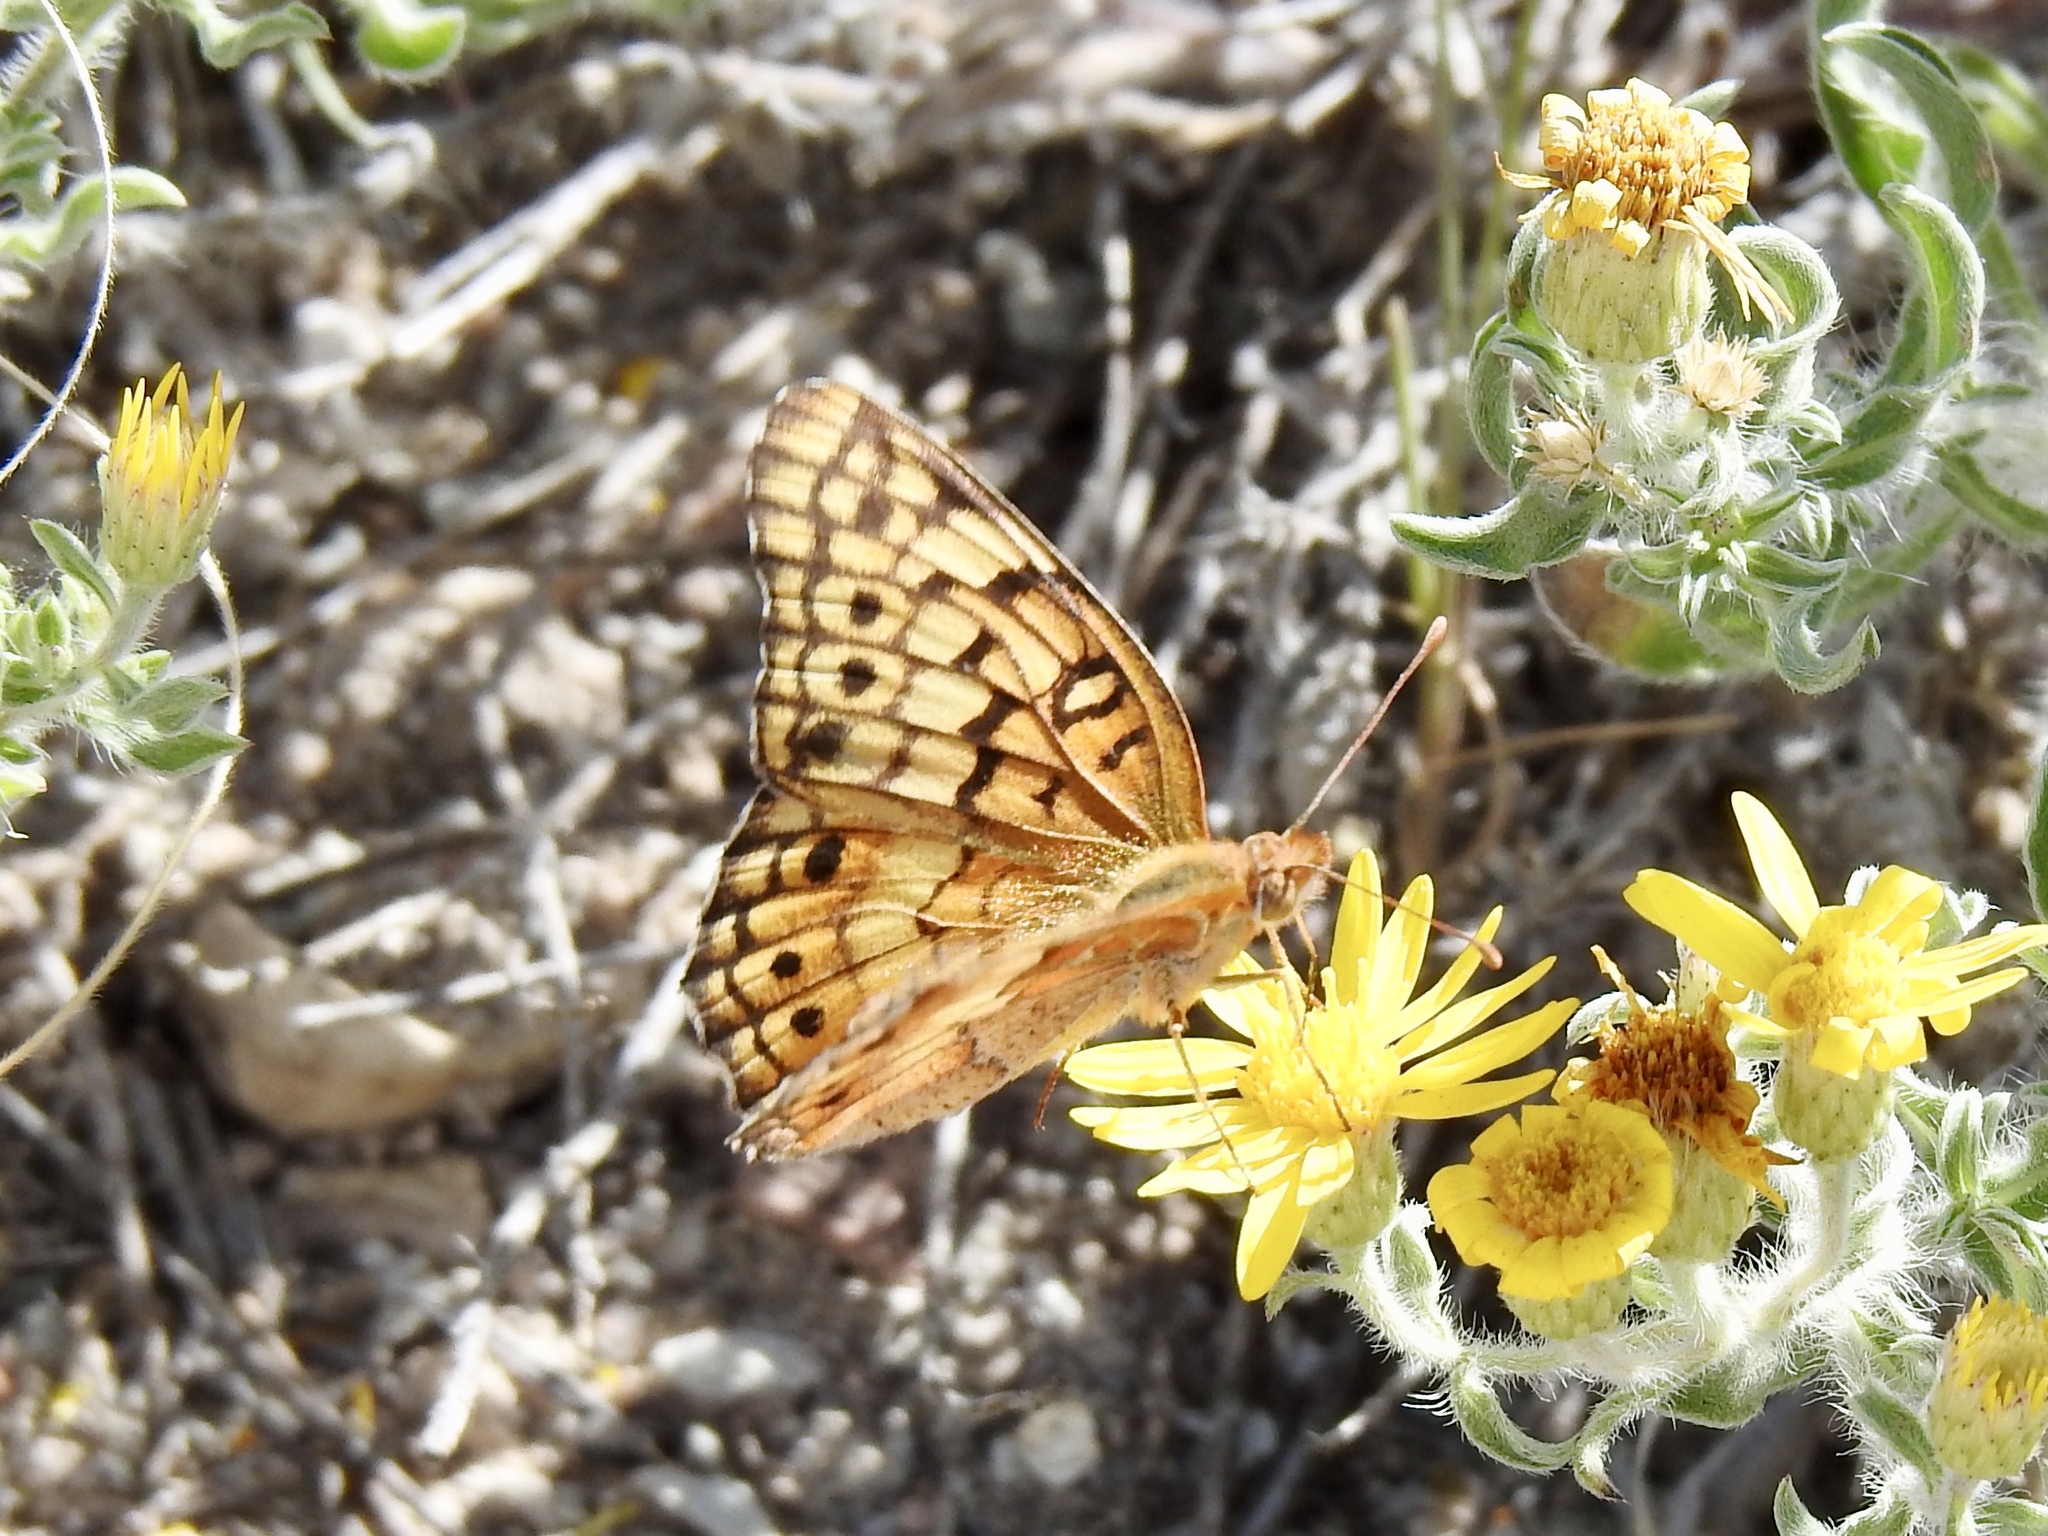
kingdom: Animalia
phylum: Arthropoda
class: Insecta
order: Lepidoptera
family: Nymphalidae
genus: Euptoieta
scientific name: Euptoieta claudia
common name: Variegated fritillary
